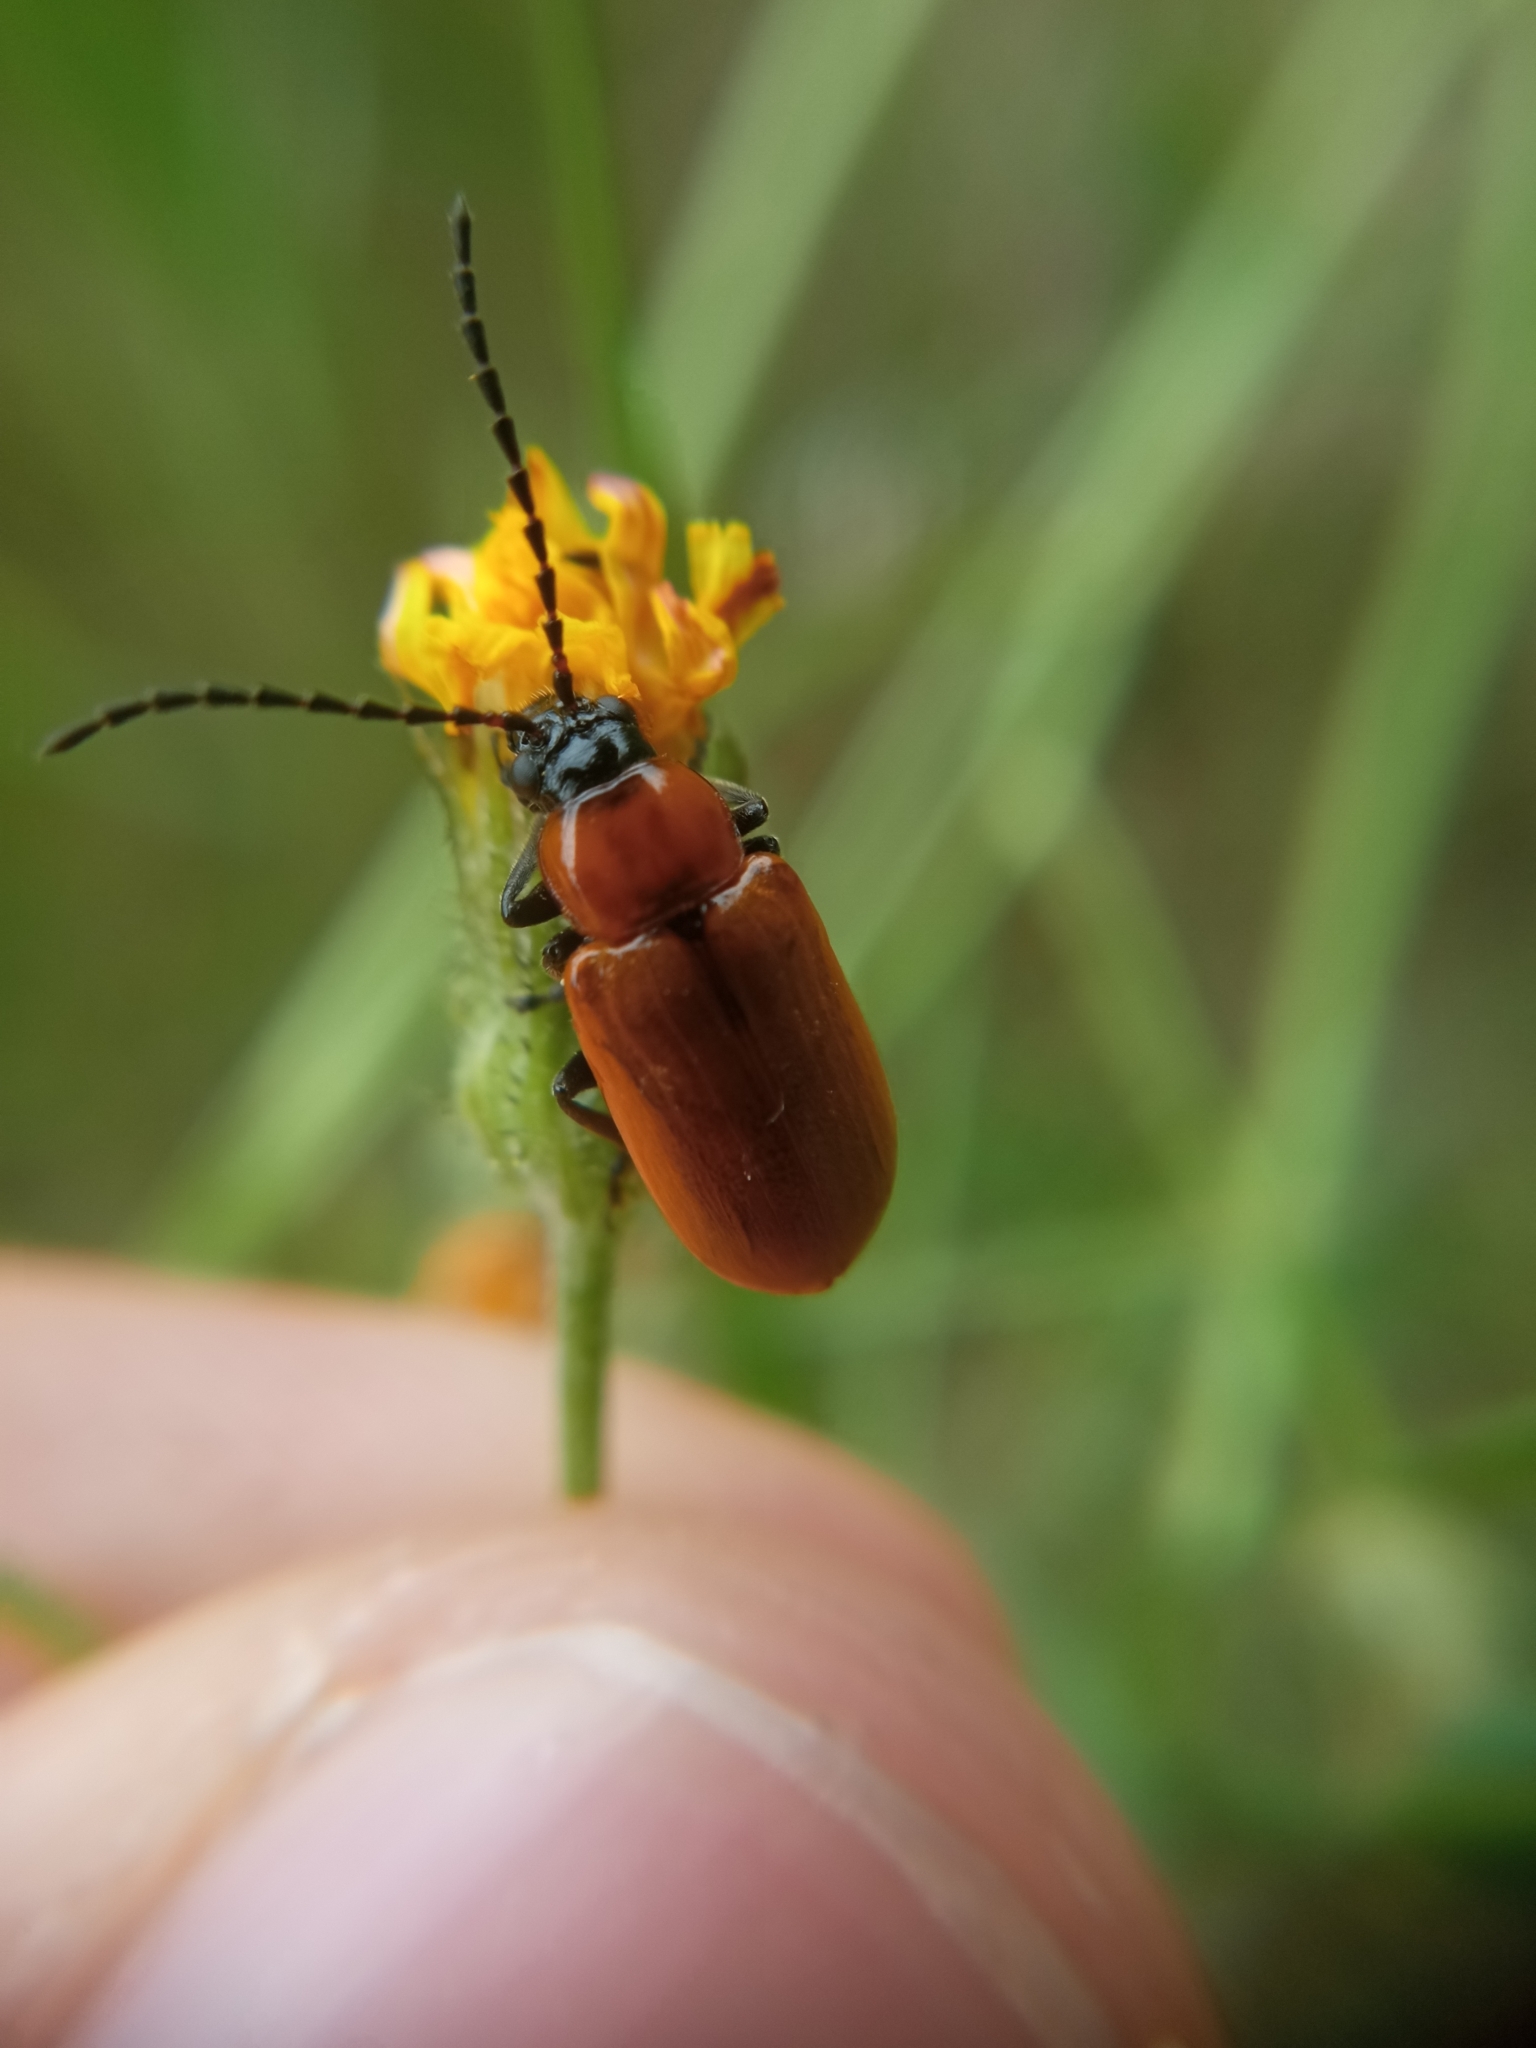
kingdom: Animalia
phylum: Arthropoda
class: Insecta
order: Coleoptera
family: Chrysomelidae
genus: Exosoma
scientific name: Exosoma lusitanicum
